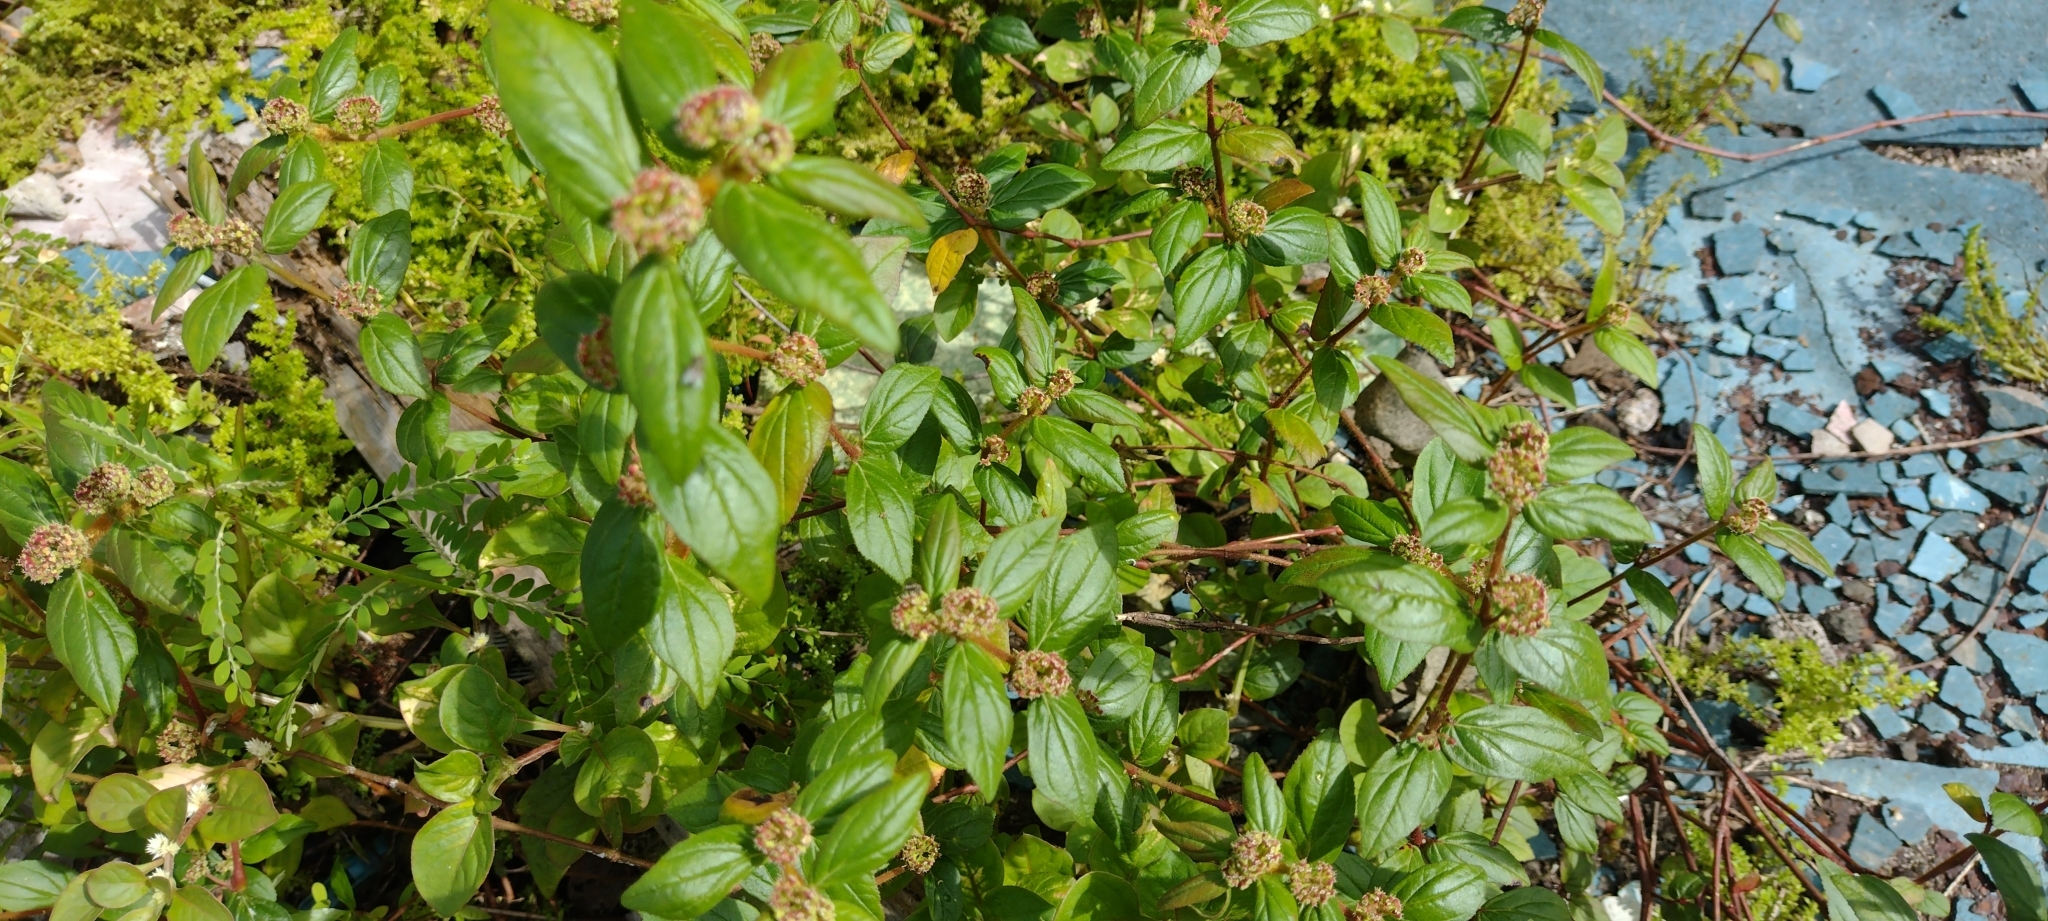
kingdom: Plantae
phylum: Tracheophyta
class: Magnoliopsida
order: Malpighiales
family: Euphorbiaceae
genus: Euphorbia
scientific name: Euphorbia hirta
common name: Pillpod sandmat
